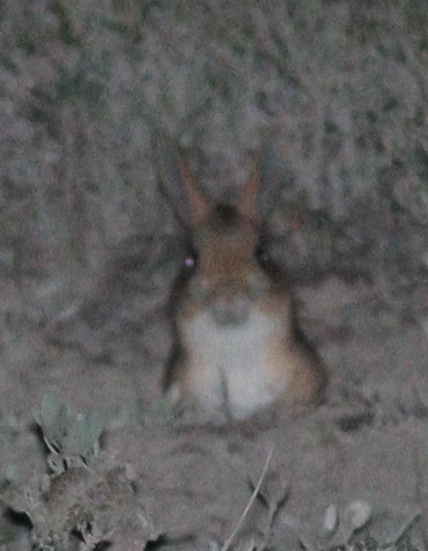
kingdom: Animalia
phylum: Chordata
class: Mammalia
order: Rodentia
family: Dipodidae
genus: Allactaga
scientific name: Allactaga williamsi
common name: Williams s jerboa
